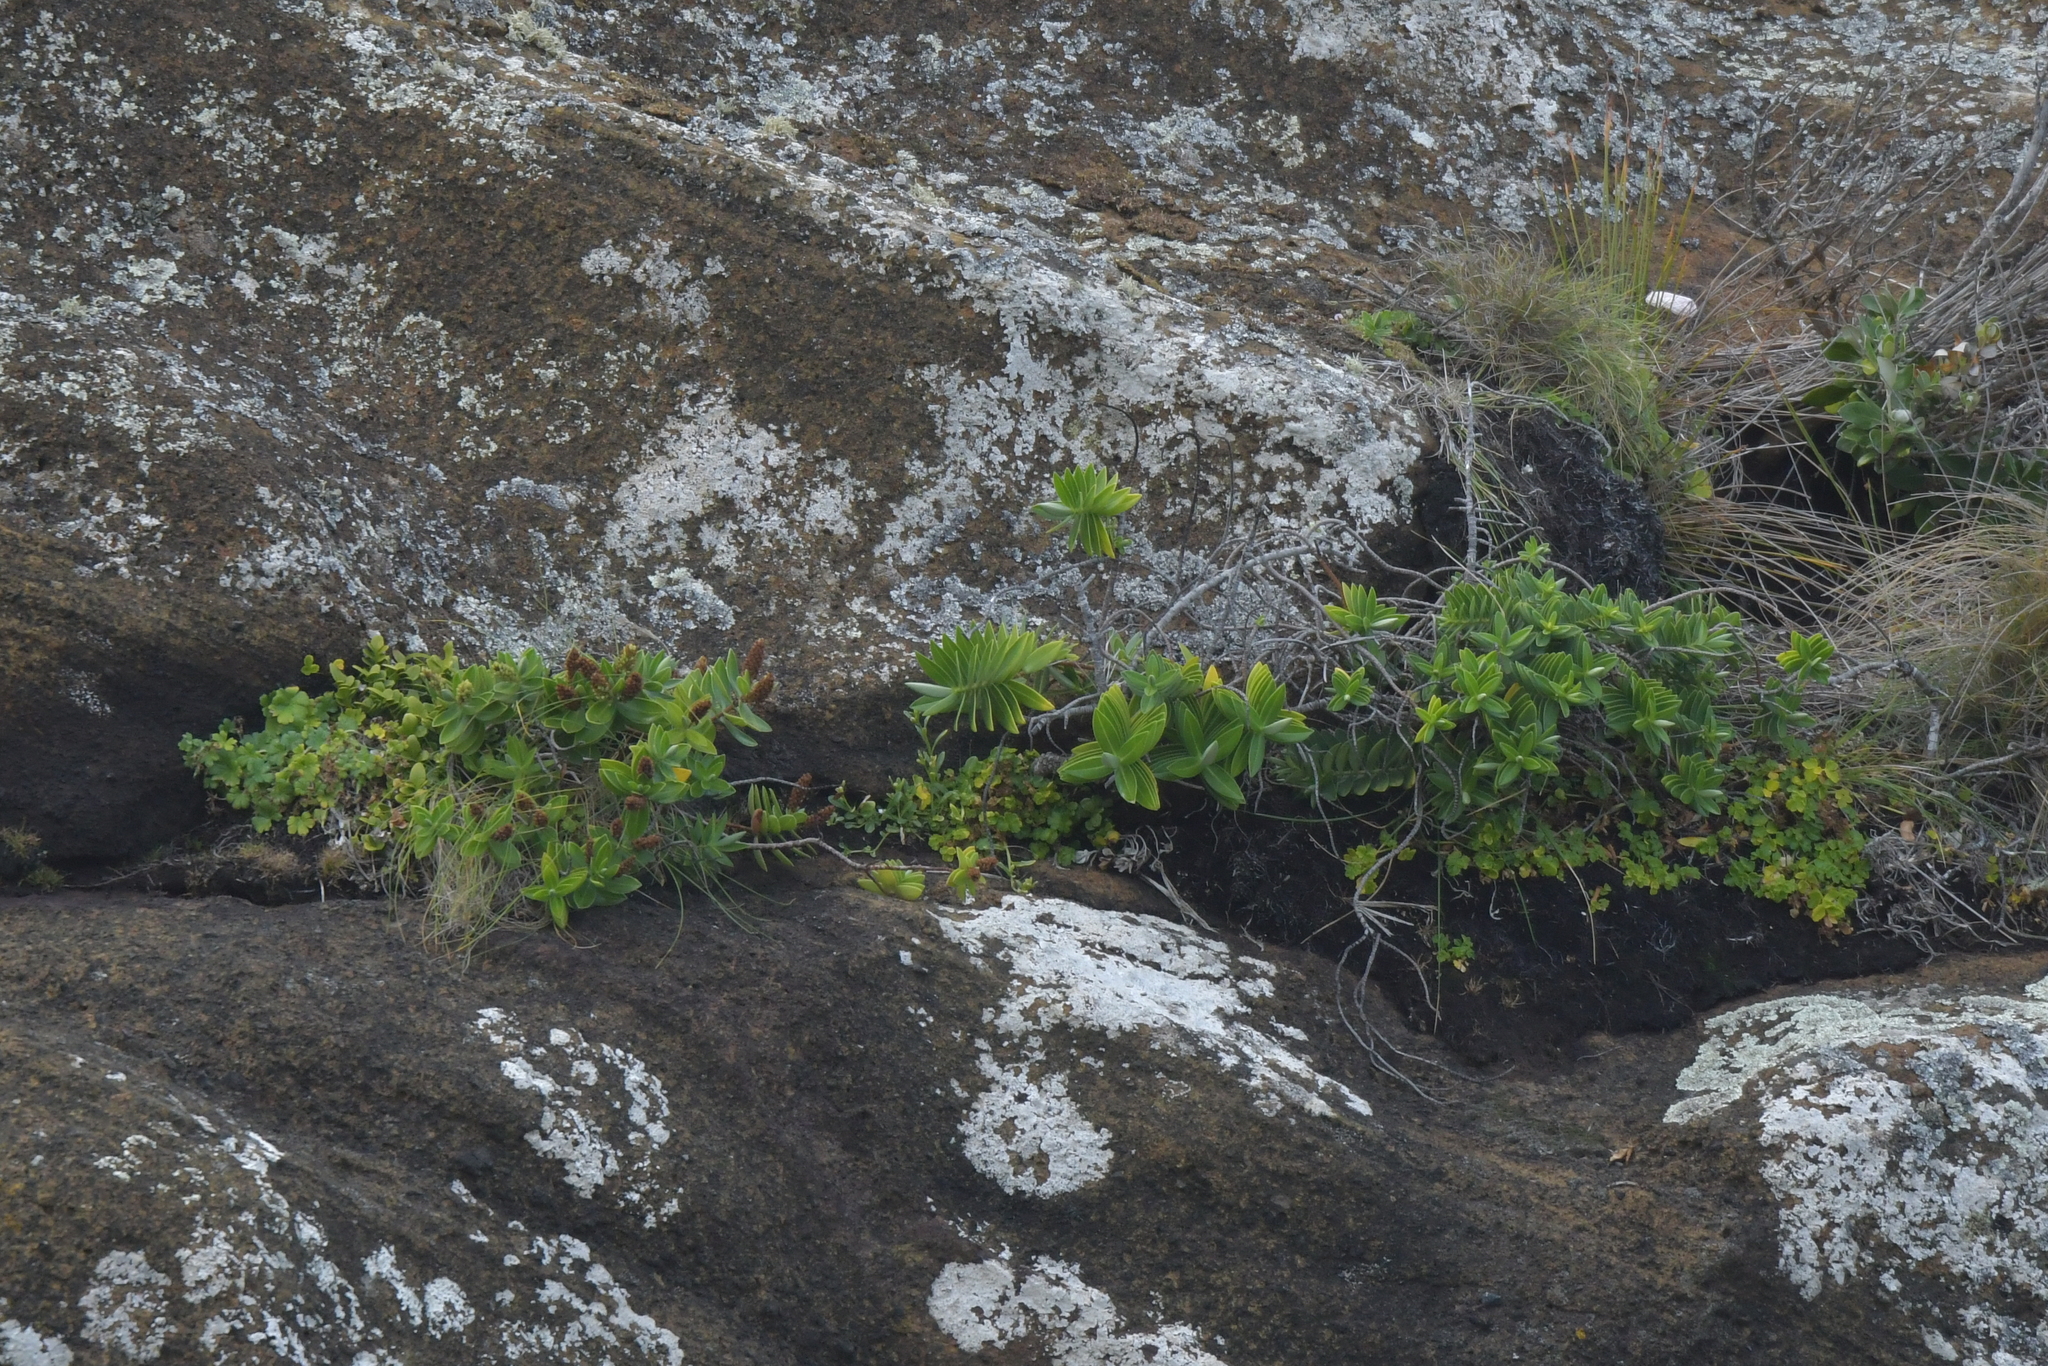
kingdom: Plantae
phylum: Tracheophyta
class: Magnoliopsida
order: Apiales
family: Apiaceae
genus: Apium
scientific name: Apium prostratum
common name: Prostrate marshwort
